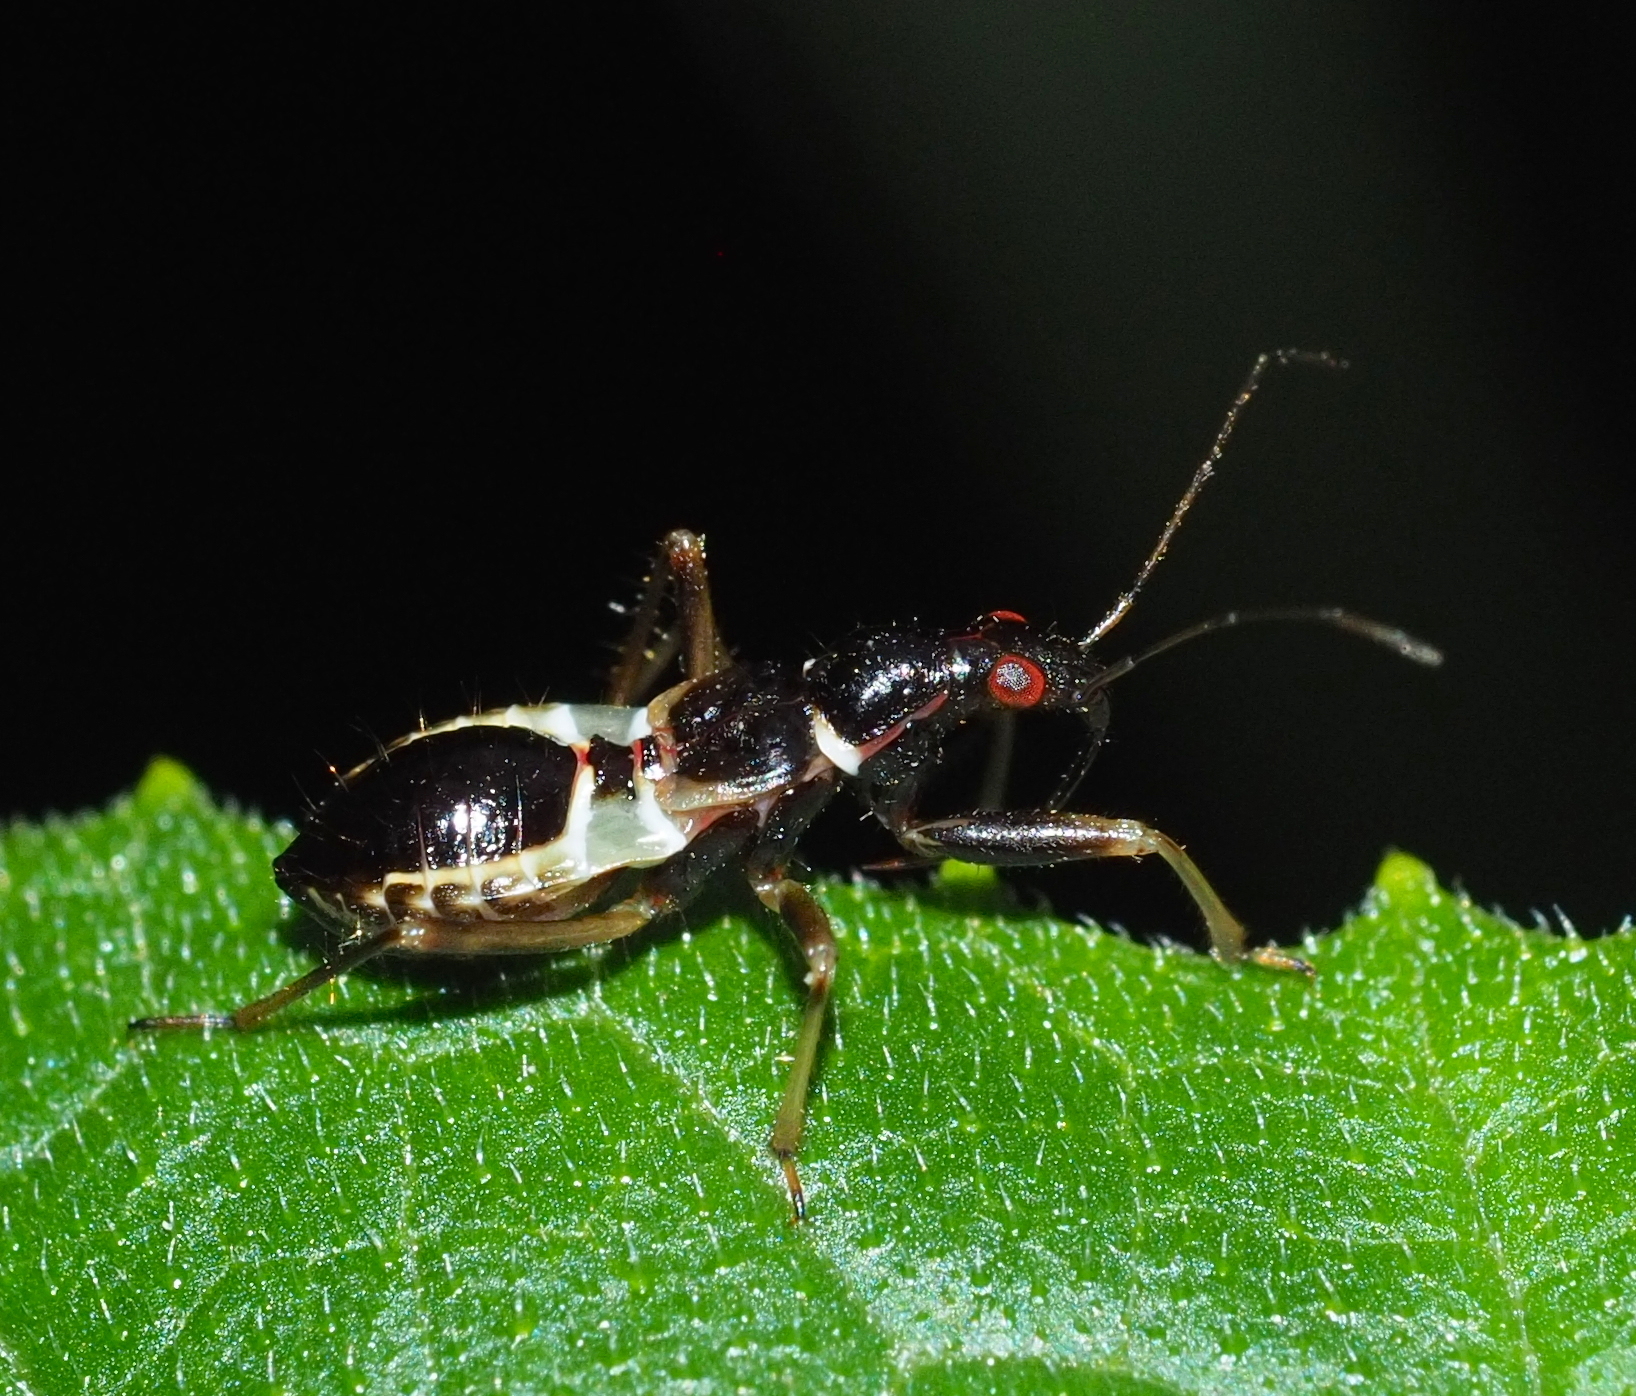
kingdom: Animalia
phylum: Arthropoda
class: Insecta
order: Hemiptera
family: Nabidae
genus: Himacerus
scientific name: Himacerus mirmicoides
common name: Ant damsel bug
